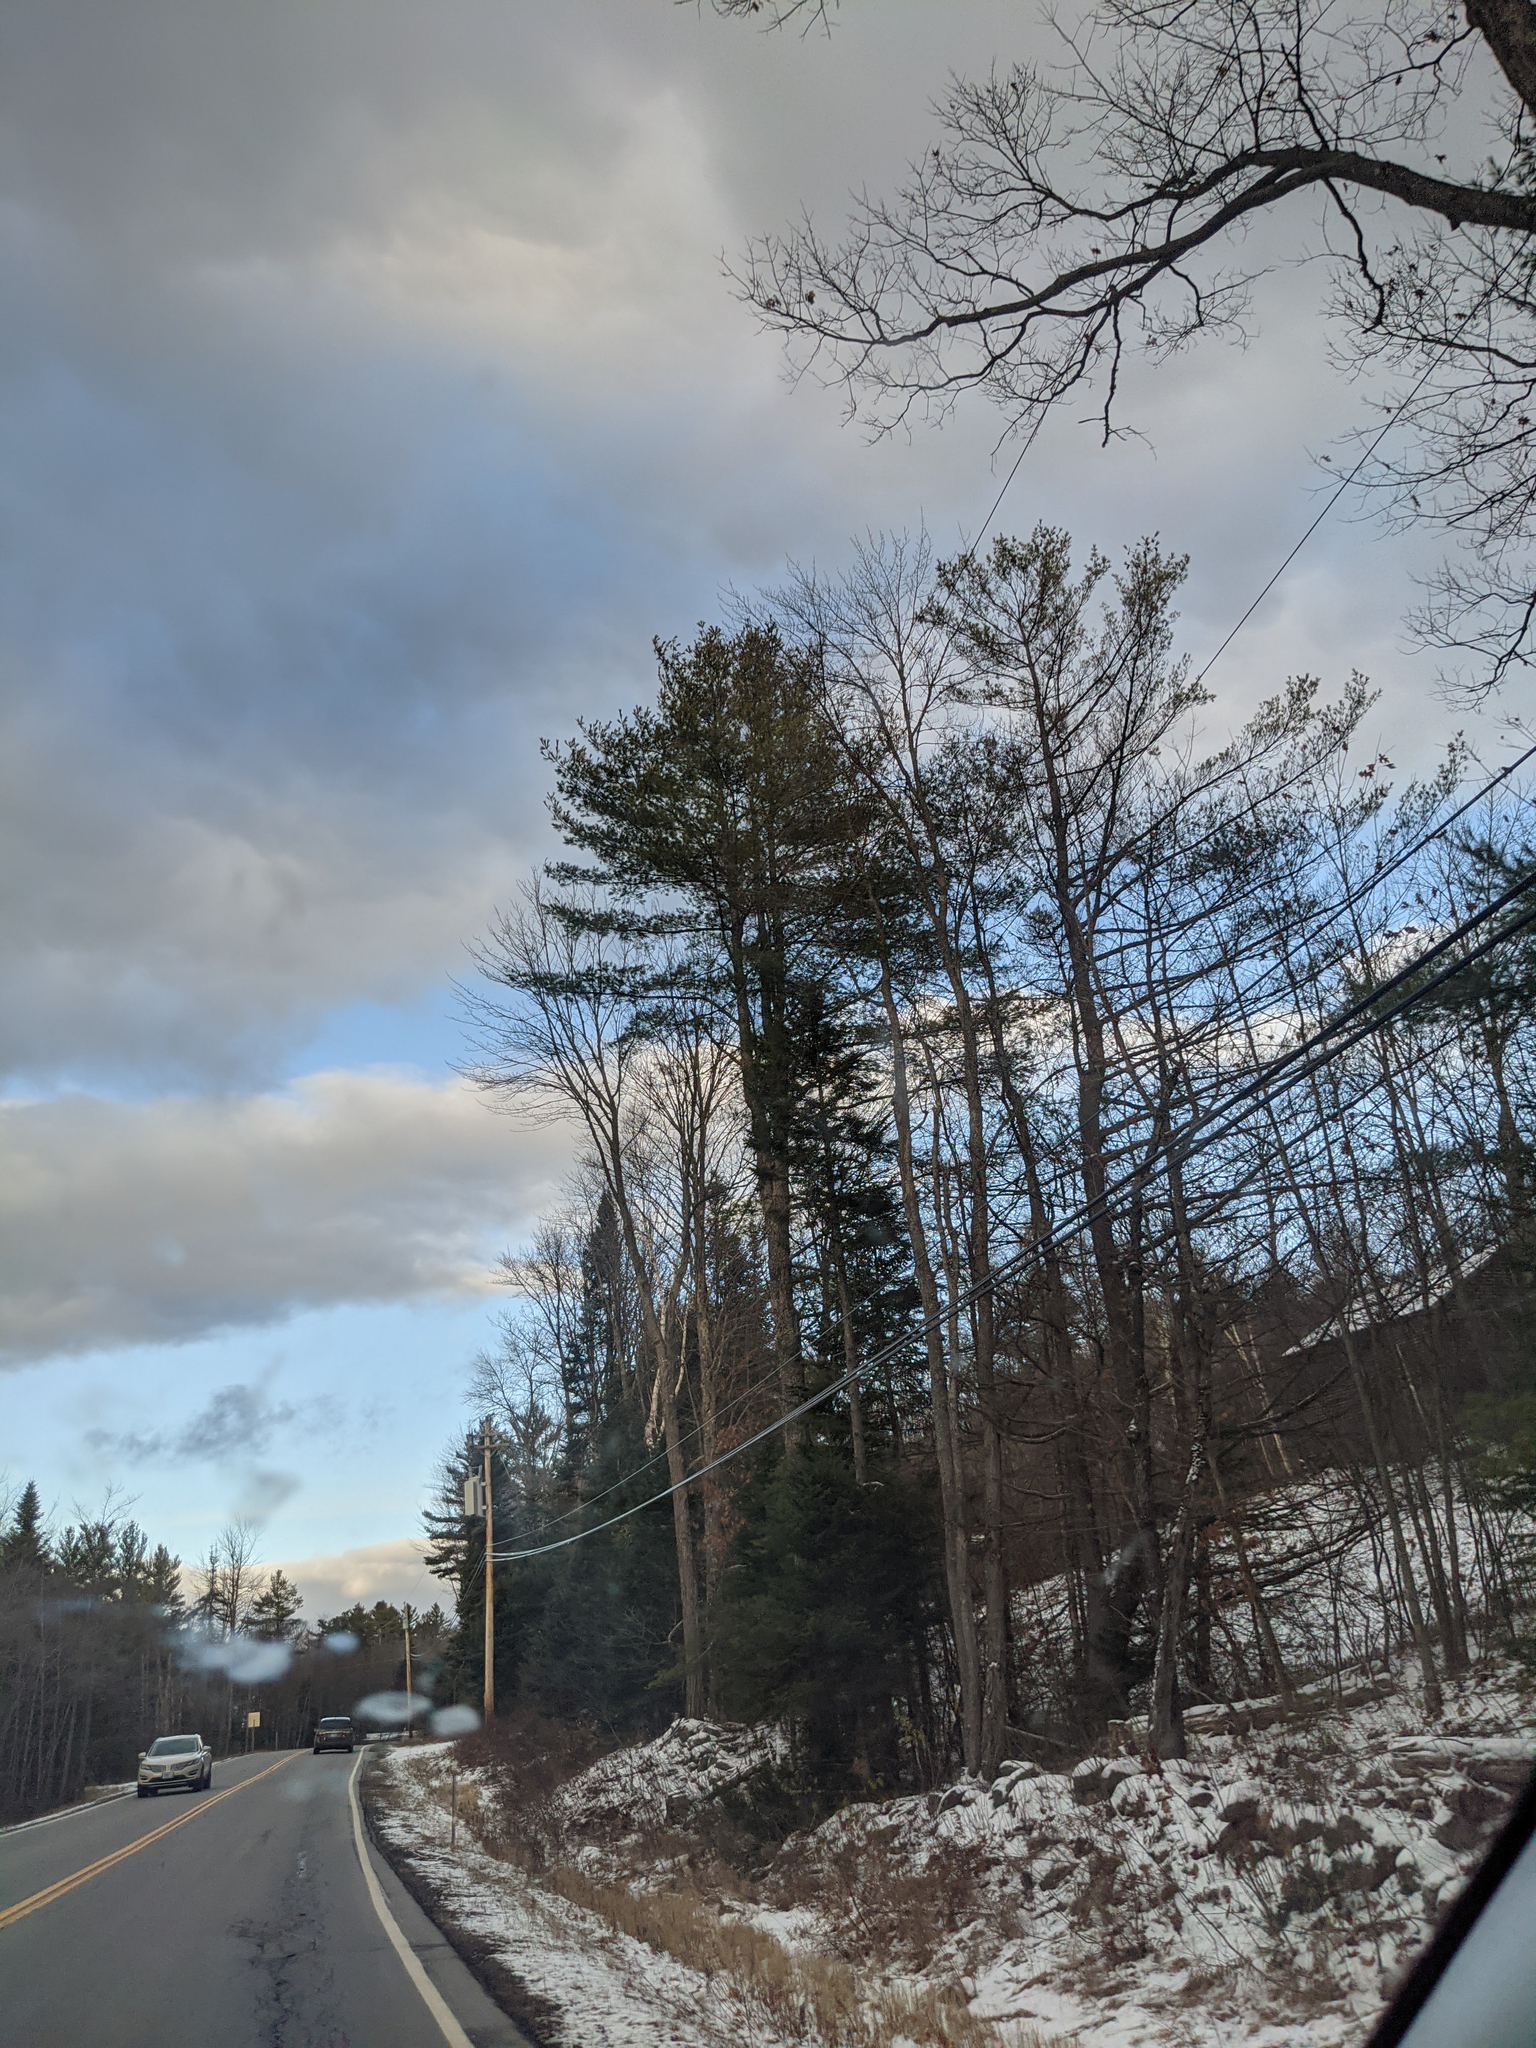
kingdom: Plantae
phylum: Tracheophyta
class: Pinopsida
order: Pinales
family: Pinaceae
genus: Pinus
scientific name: Pinus strobus
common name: Weymouth pine
